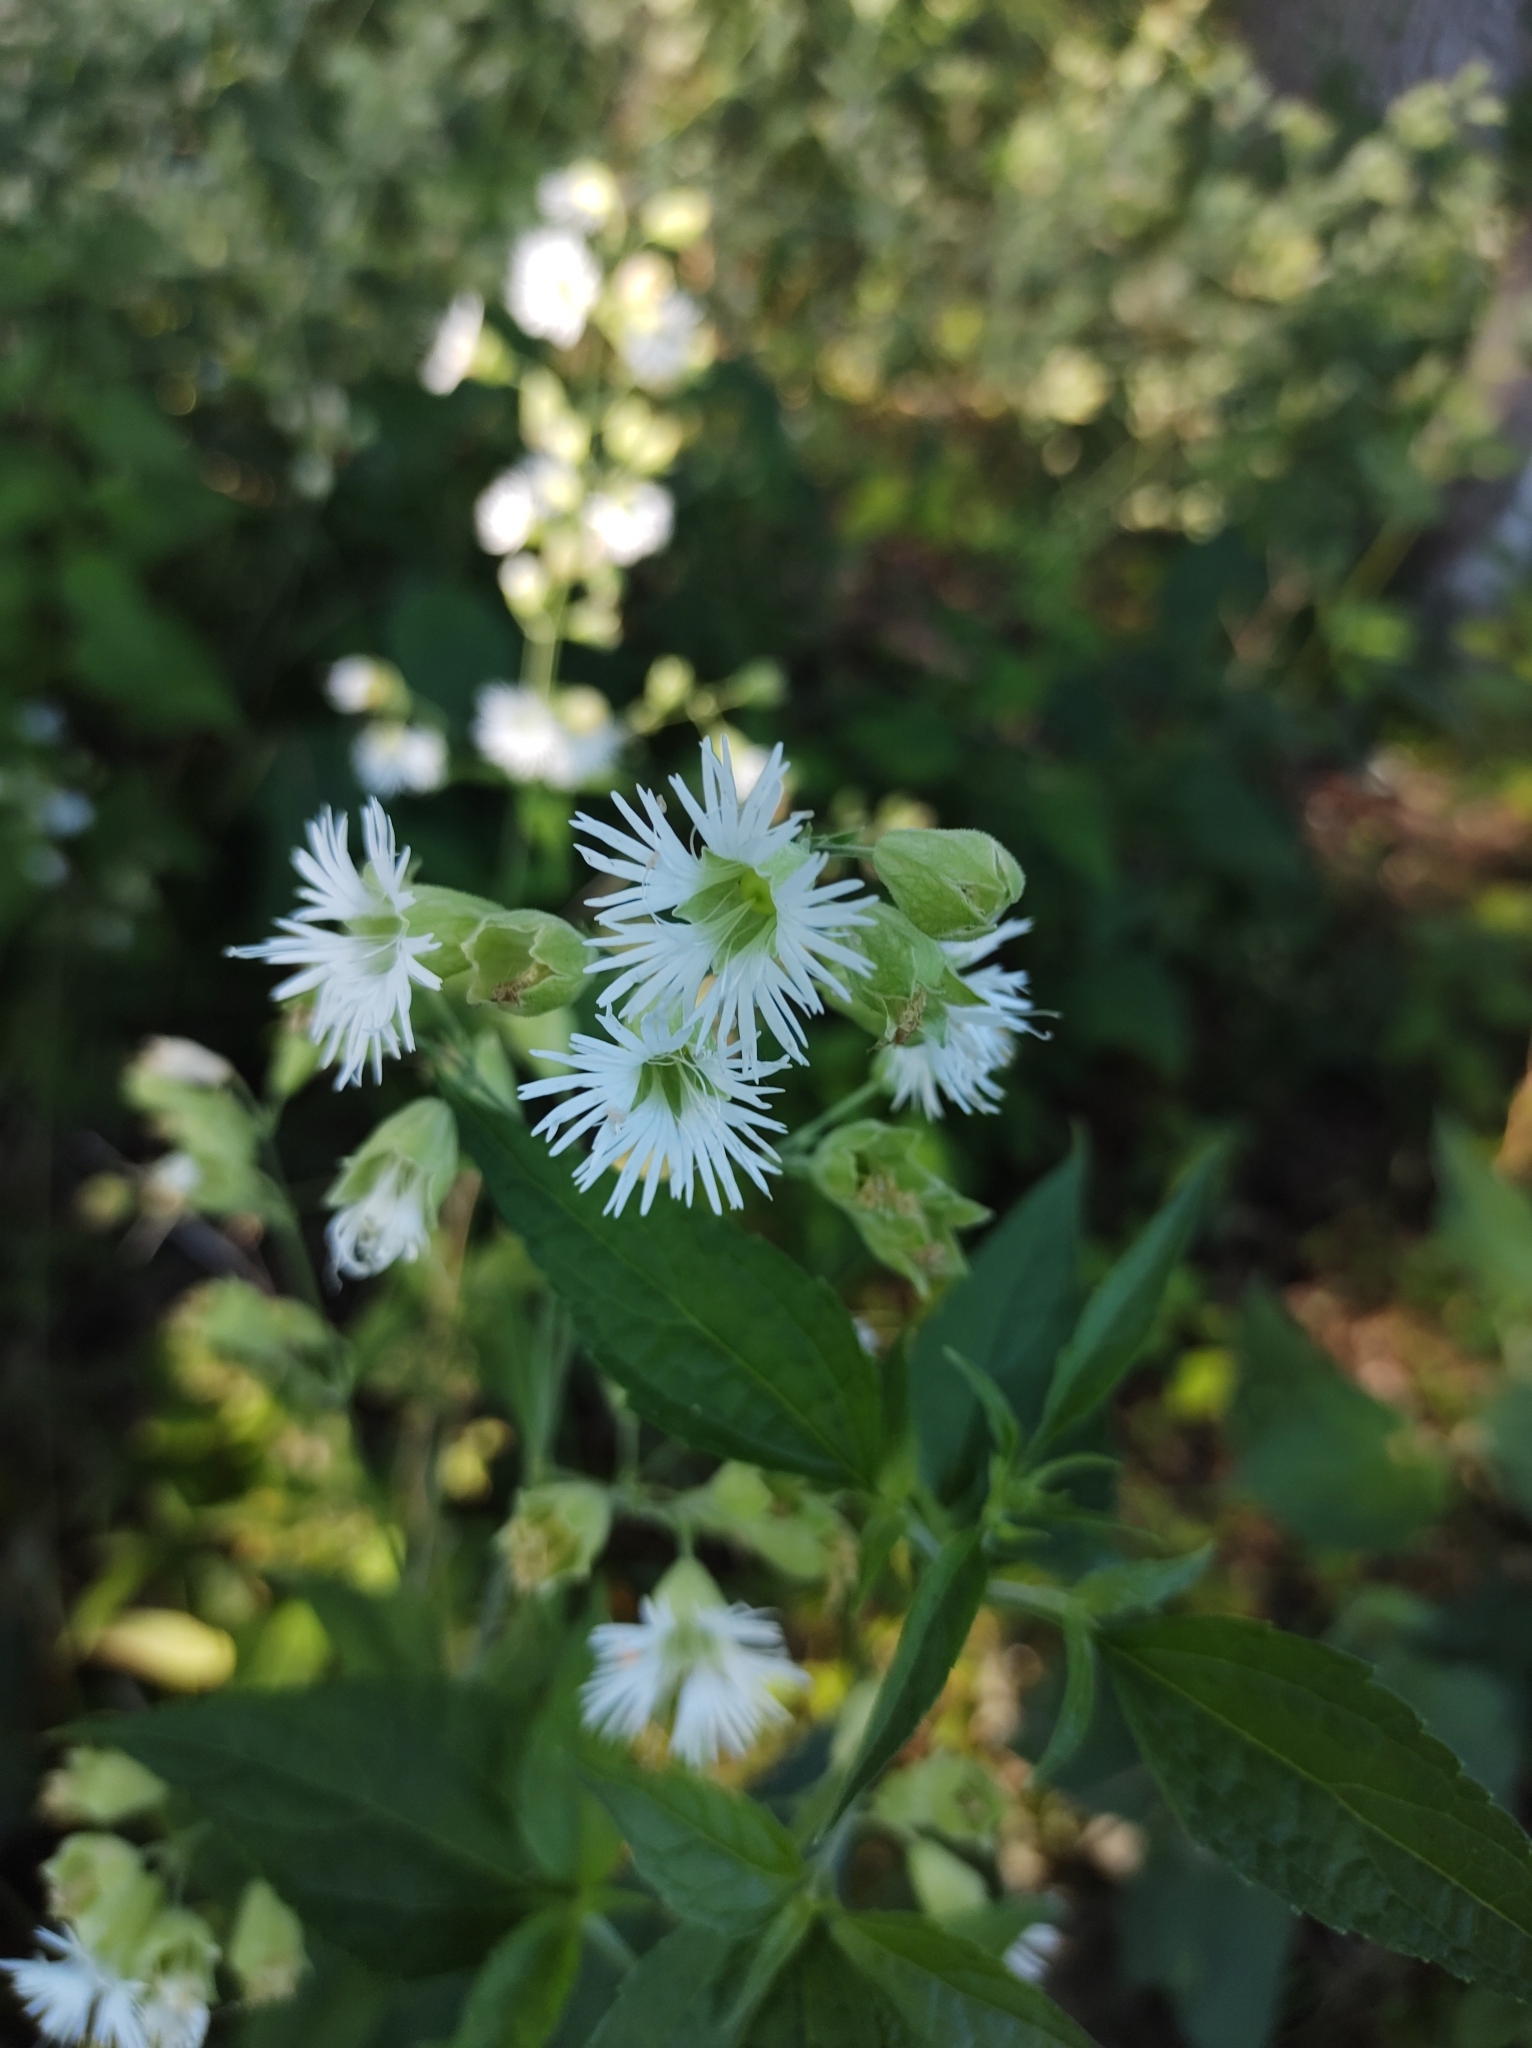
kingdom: Plantae
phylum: Tracheophyta
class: Magnoliopsida
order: Caryophyllales
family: Caryophyllaceae
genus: Silene
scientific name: Silene stellata
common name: Starry campion
